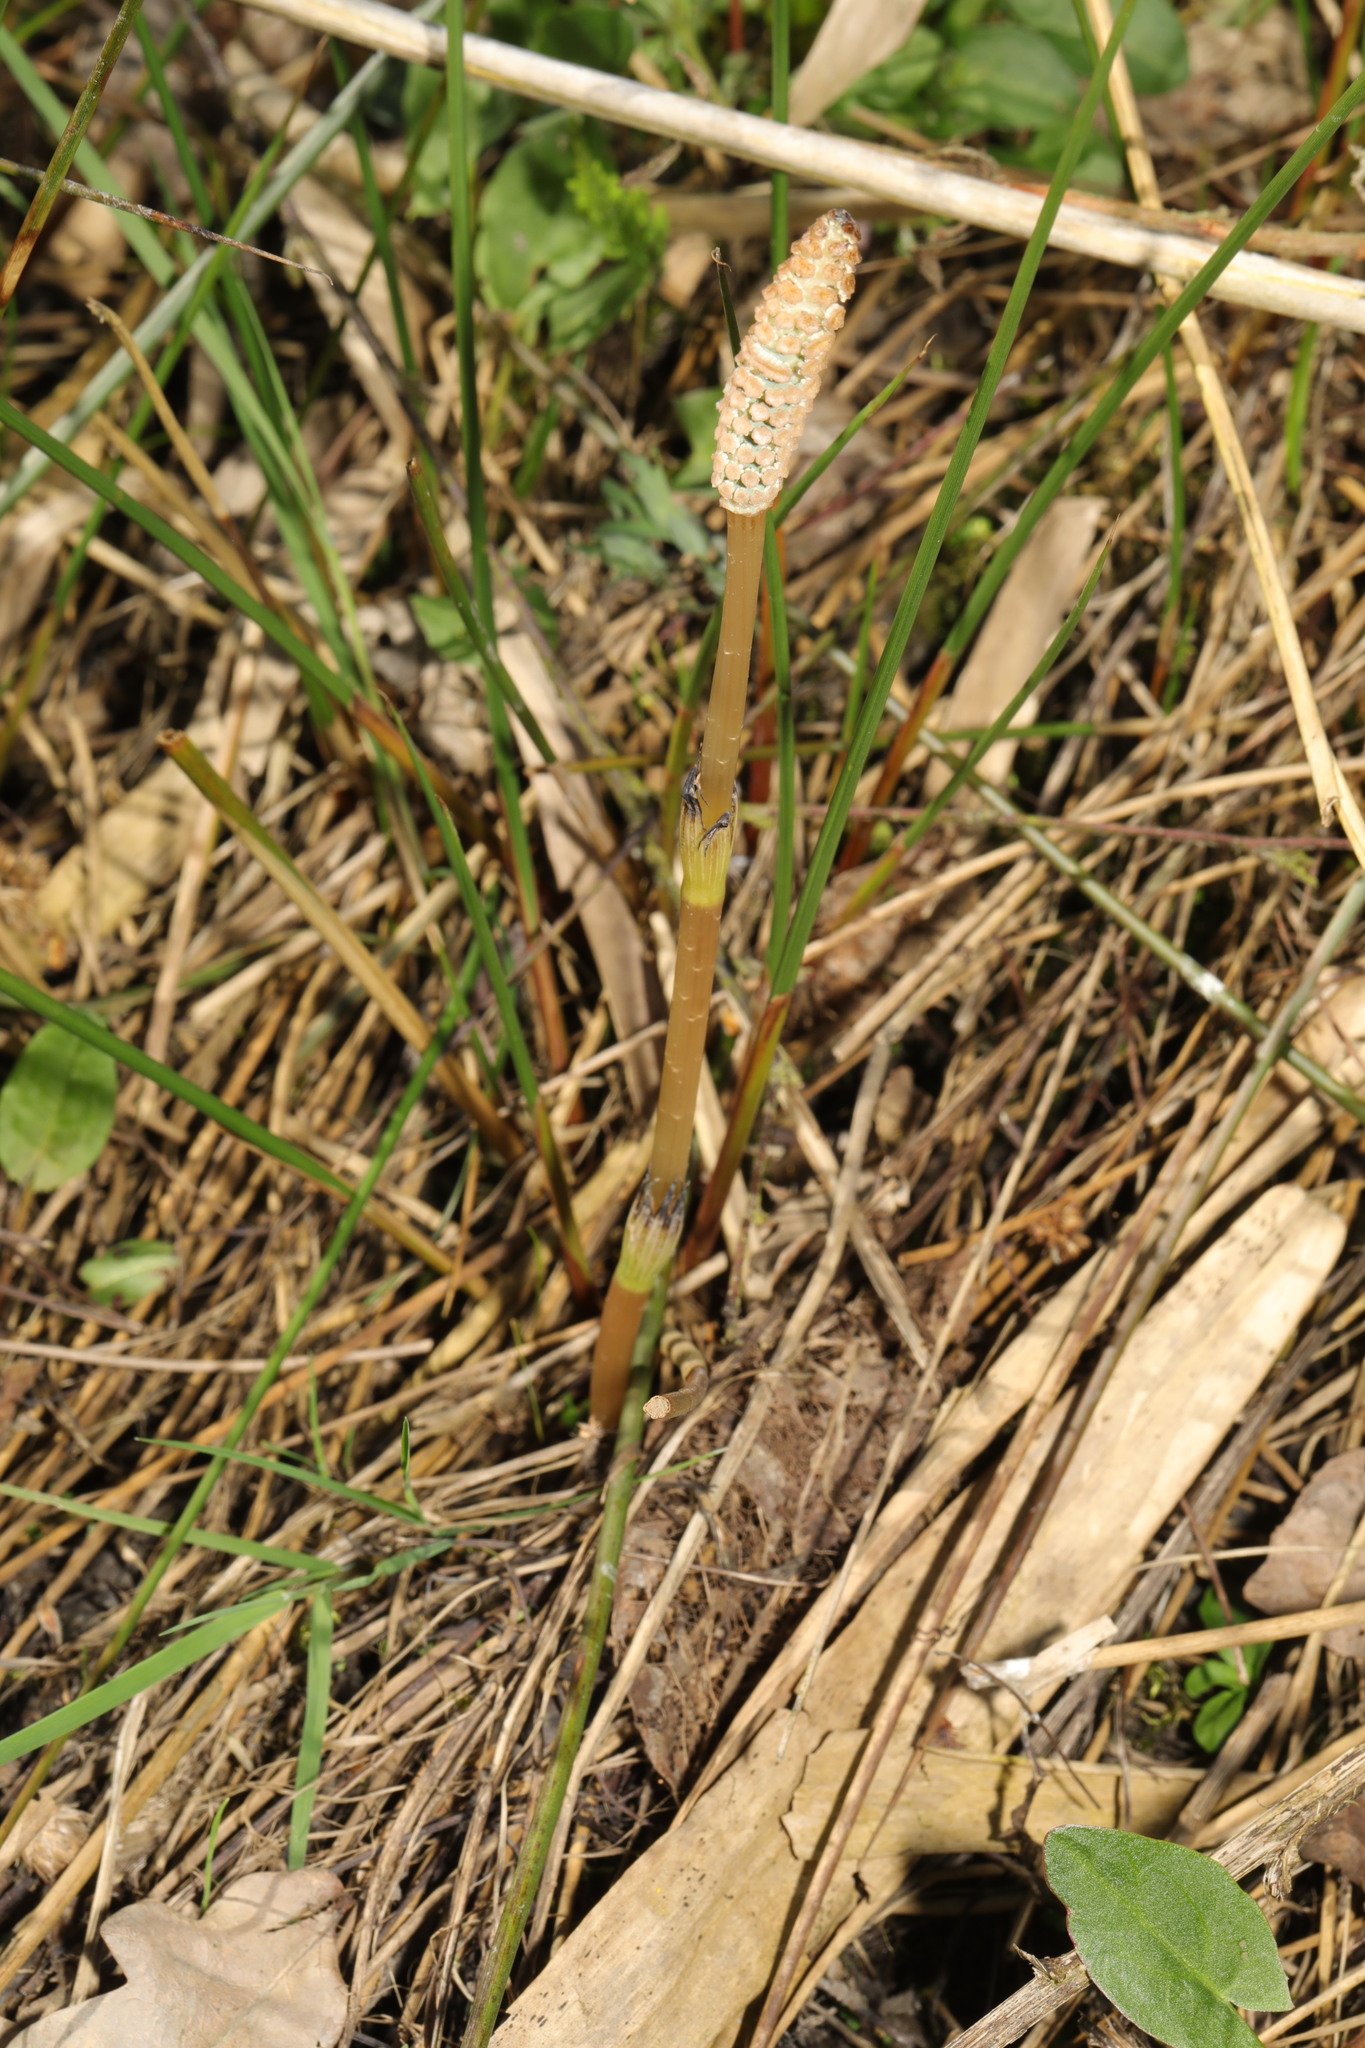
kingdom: Plantae
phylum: Tracheophyta
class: Polypodiopsida
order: Equisetales
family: Equisetaceae
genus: Equisetum
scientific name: Equisetum arvense
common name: Field horsetail
